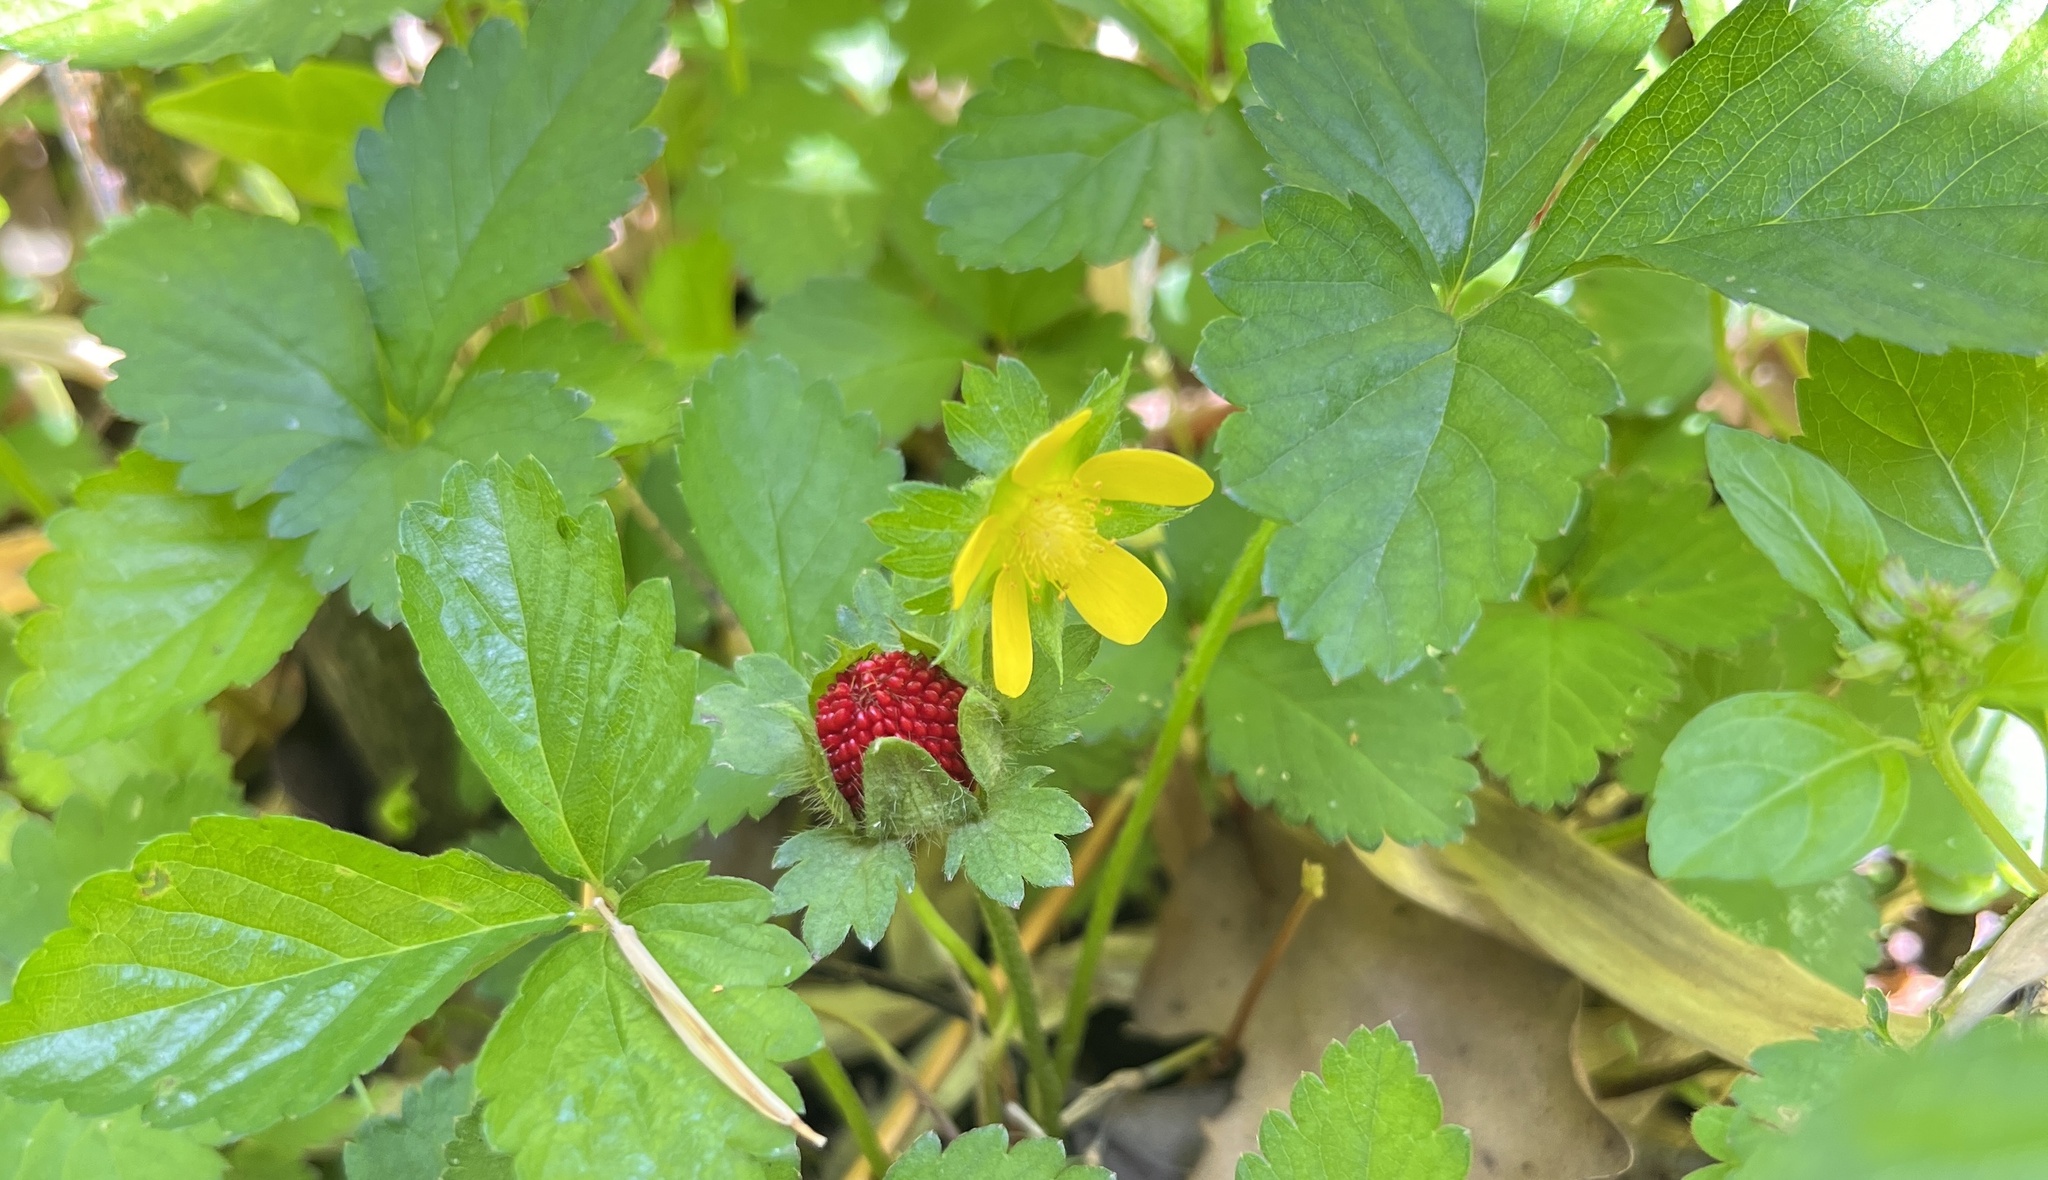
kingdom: Plantae
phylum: Tracheophyta
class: Magnoliopsida
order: Rosales
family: Rosaceae
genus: Potentilla
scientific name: Potentilla indica
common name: Yellow-flowered strawberry
